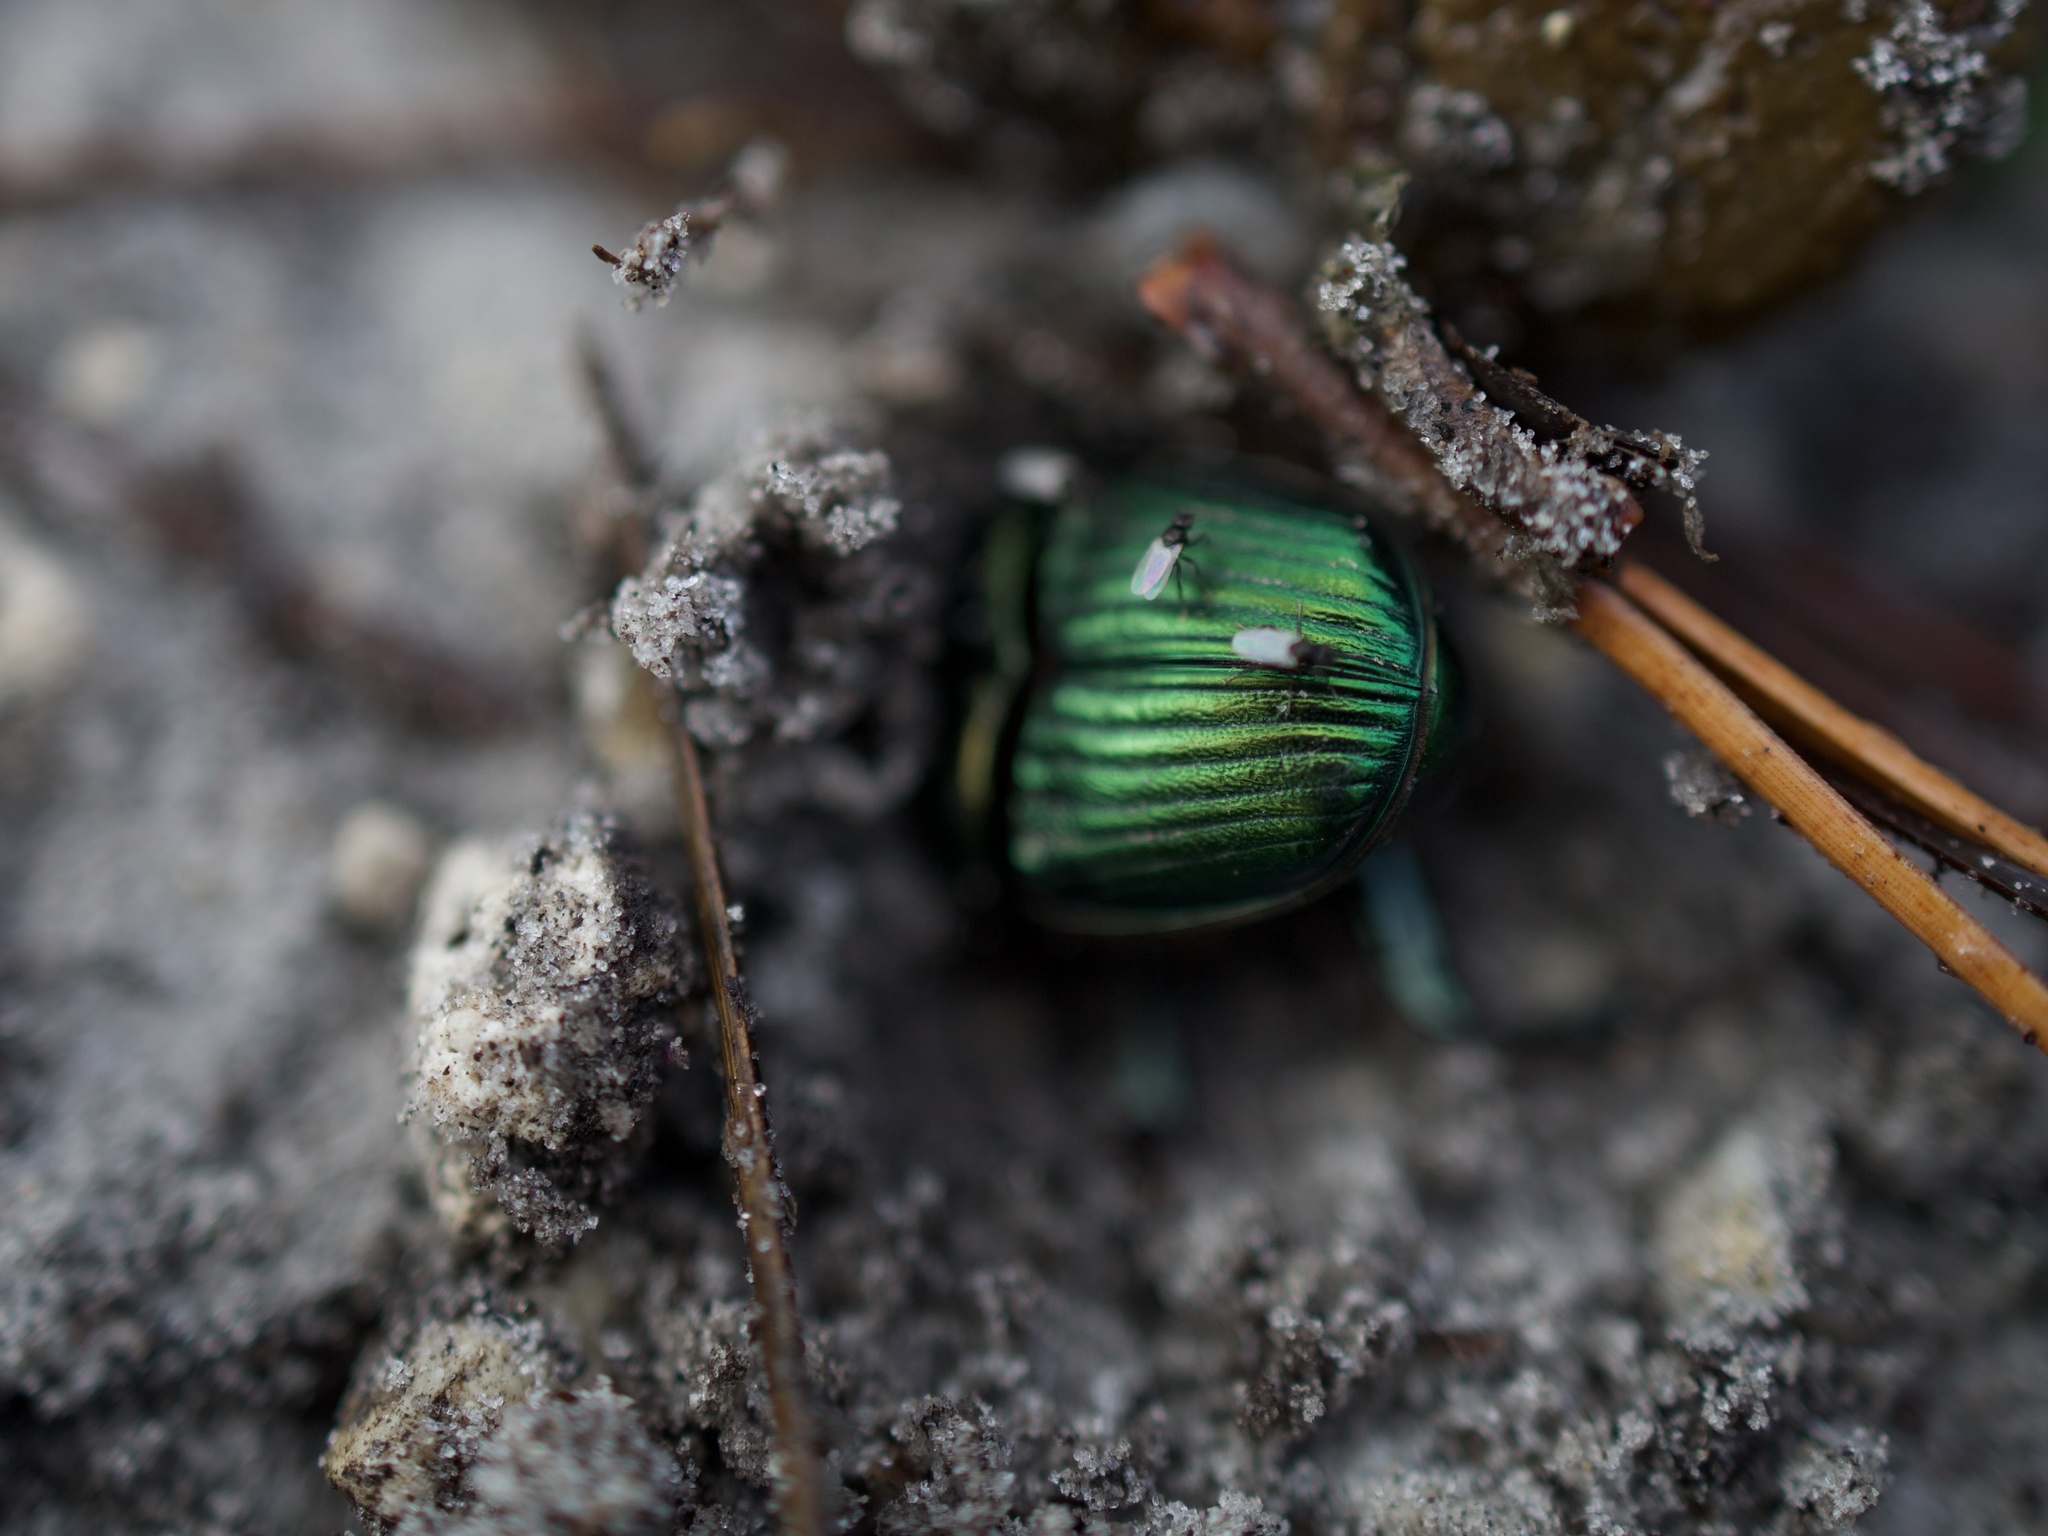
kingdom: Animalia
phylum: Arthropoda
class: Insecta
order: Coleoptera
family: Scarabaeidae
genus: Phanaeus
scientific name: Phanaeus igneus
